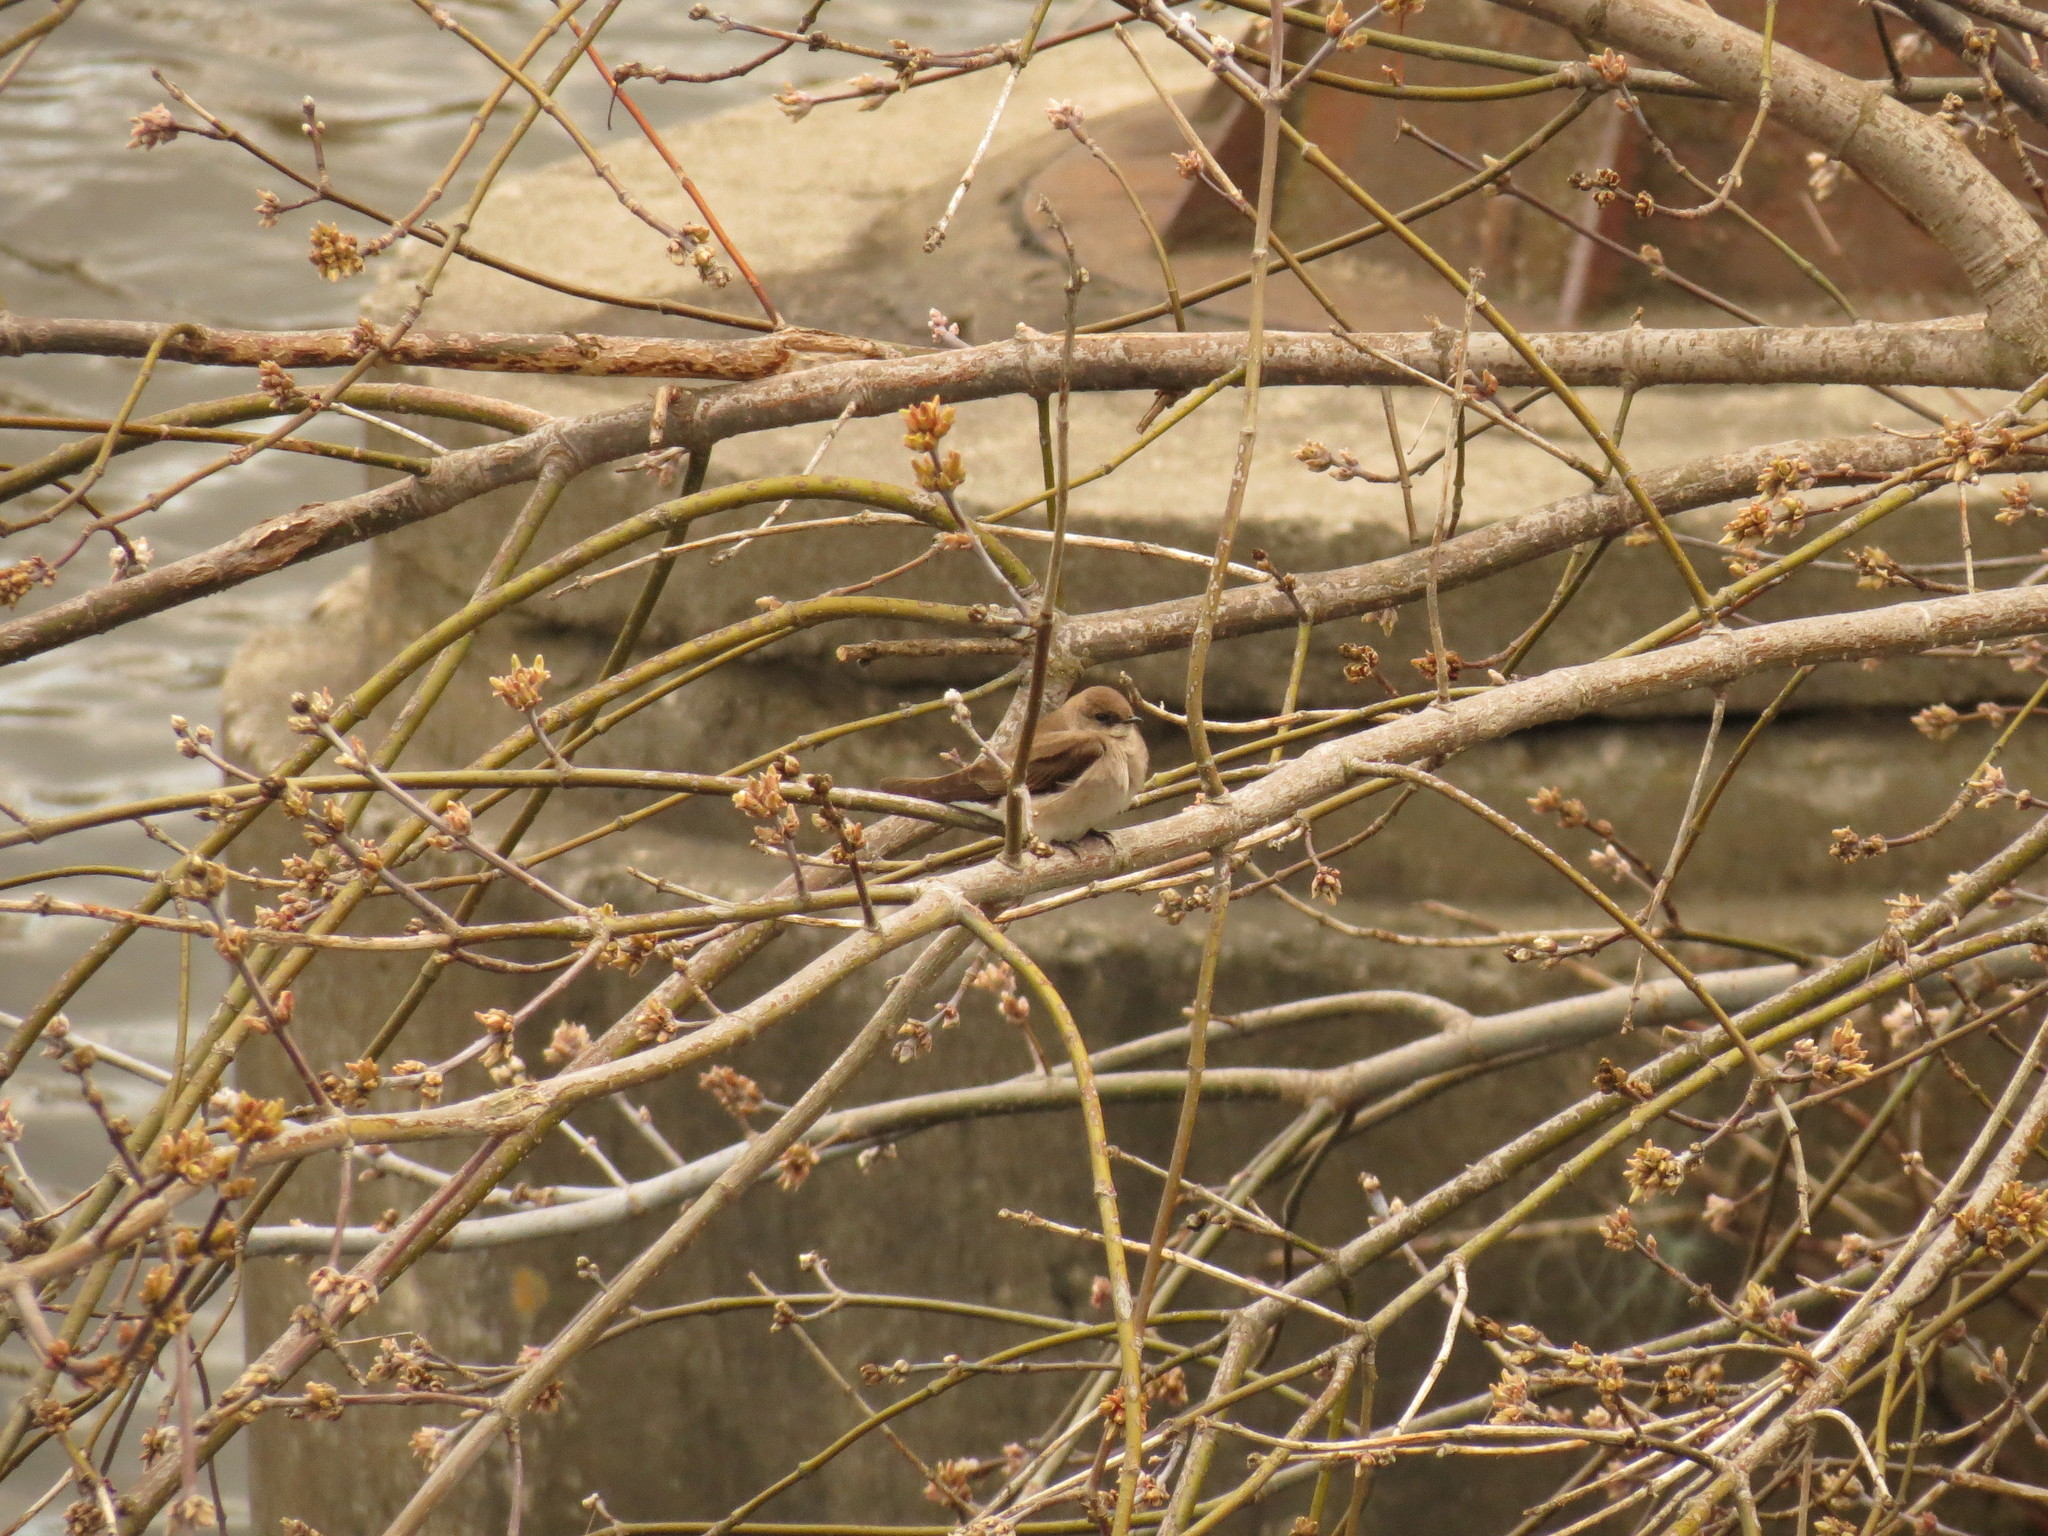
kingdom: Animalia
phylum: Chordata
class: Aves
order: Passeriformes
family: Hirundinidae
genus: Stelgidopteryx
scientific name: Stelgidopteryx serripennis
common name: Northern rough-winged swallow
